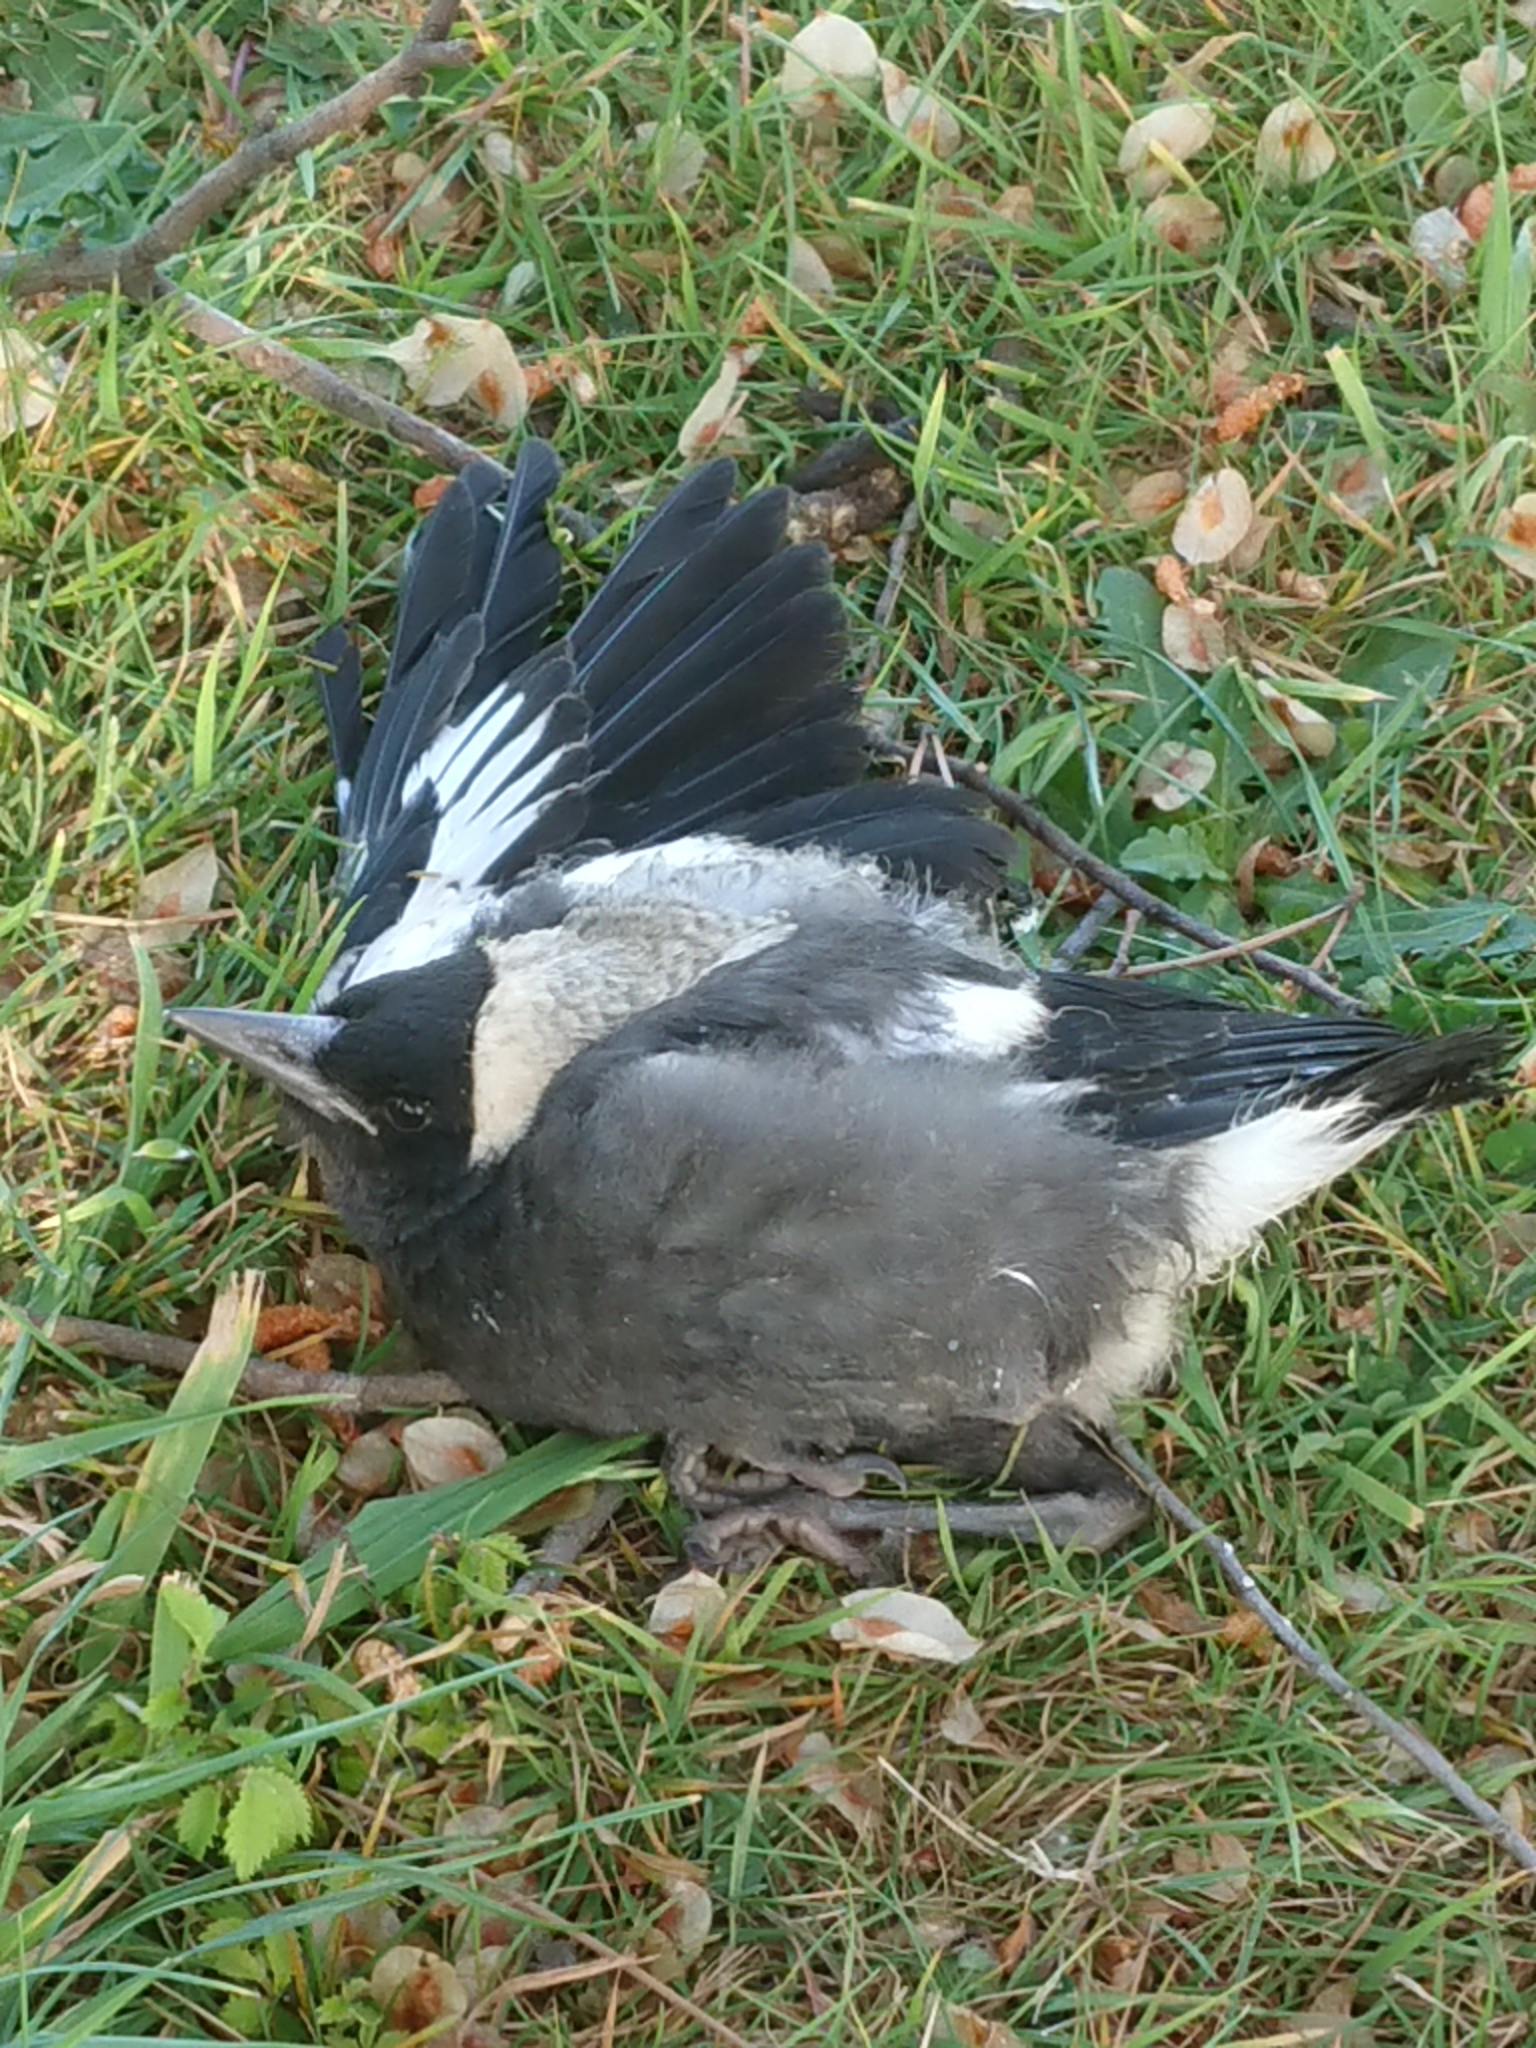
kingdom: Animalia
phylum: Chordata
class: Aves
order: Passeriformes
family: Cracticidae
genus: Gymnorhina
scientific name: Gymnorhina tibicen
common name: Australian magpie
